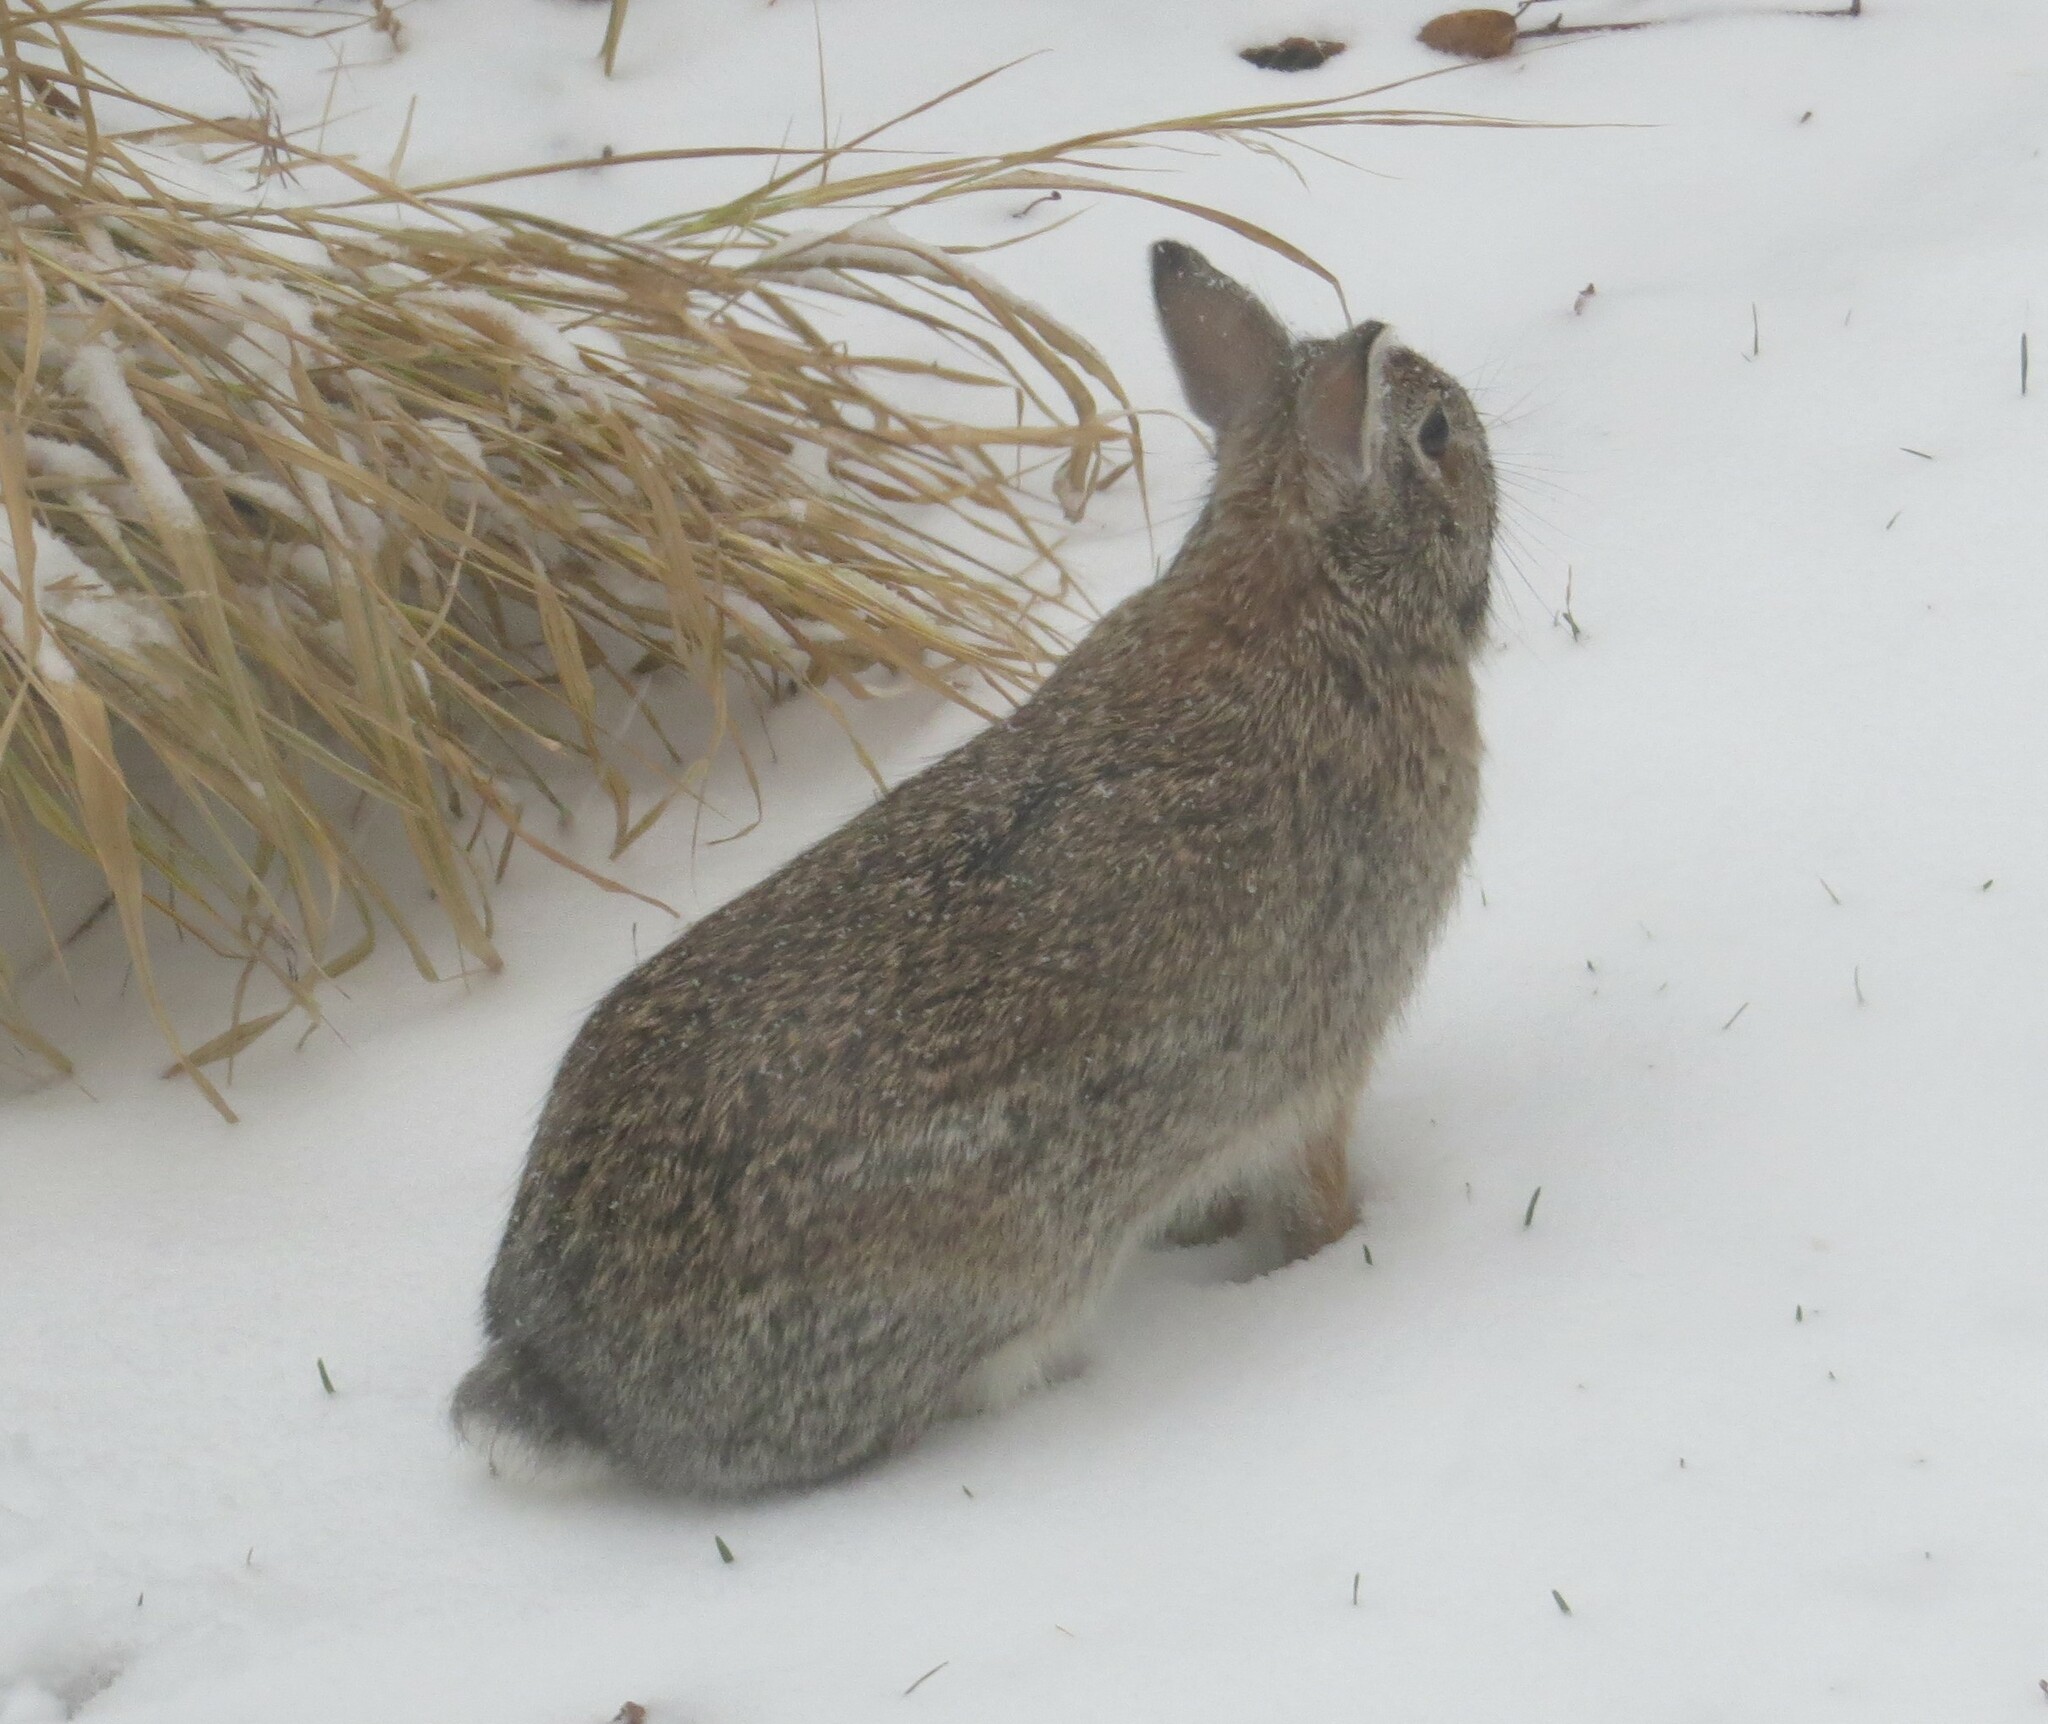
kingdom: Animalia
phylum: Chordata
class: Mammalia
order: Lagomorpha
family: Leporidae
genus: Sylvilagus
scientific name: Sylvilagus floridanus
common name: Eastern cottontail
